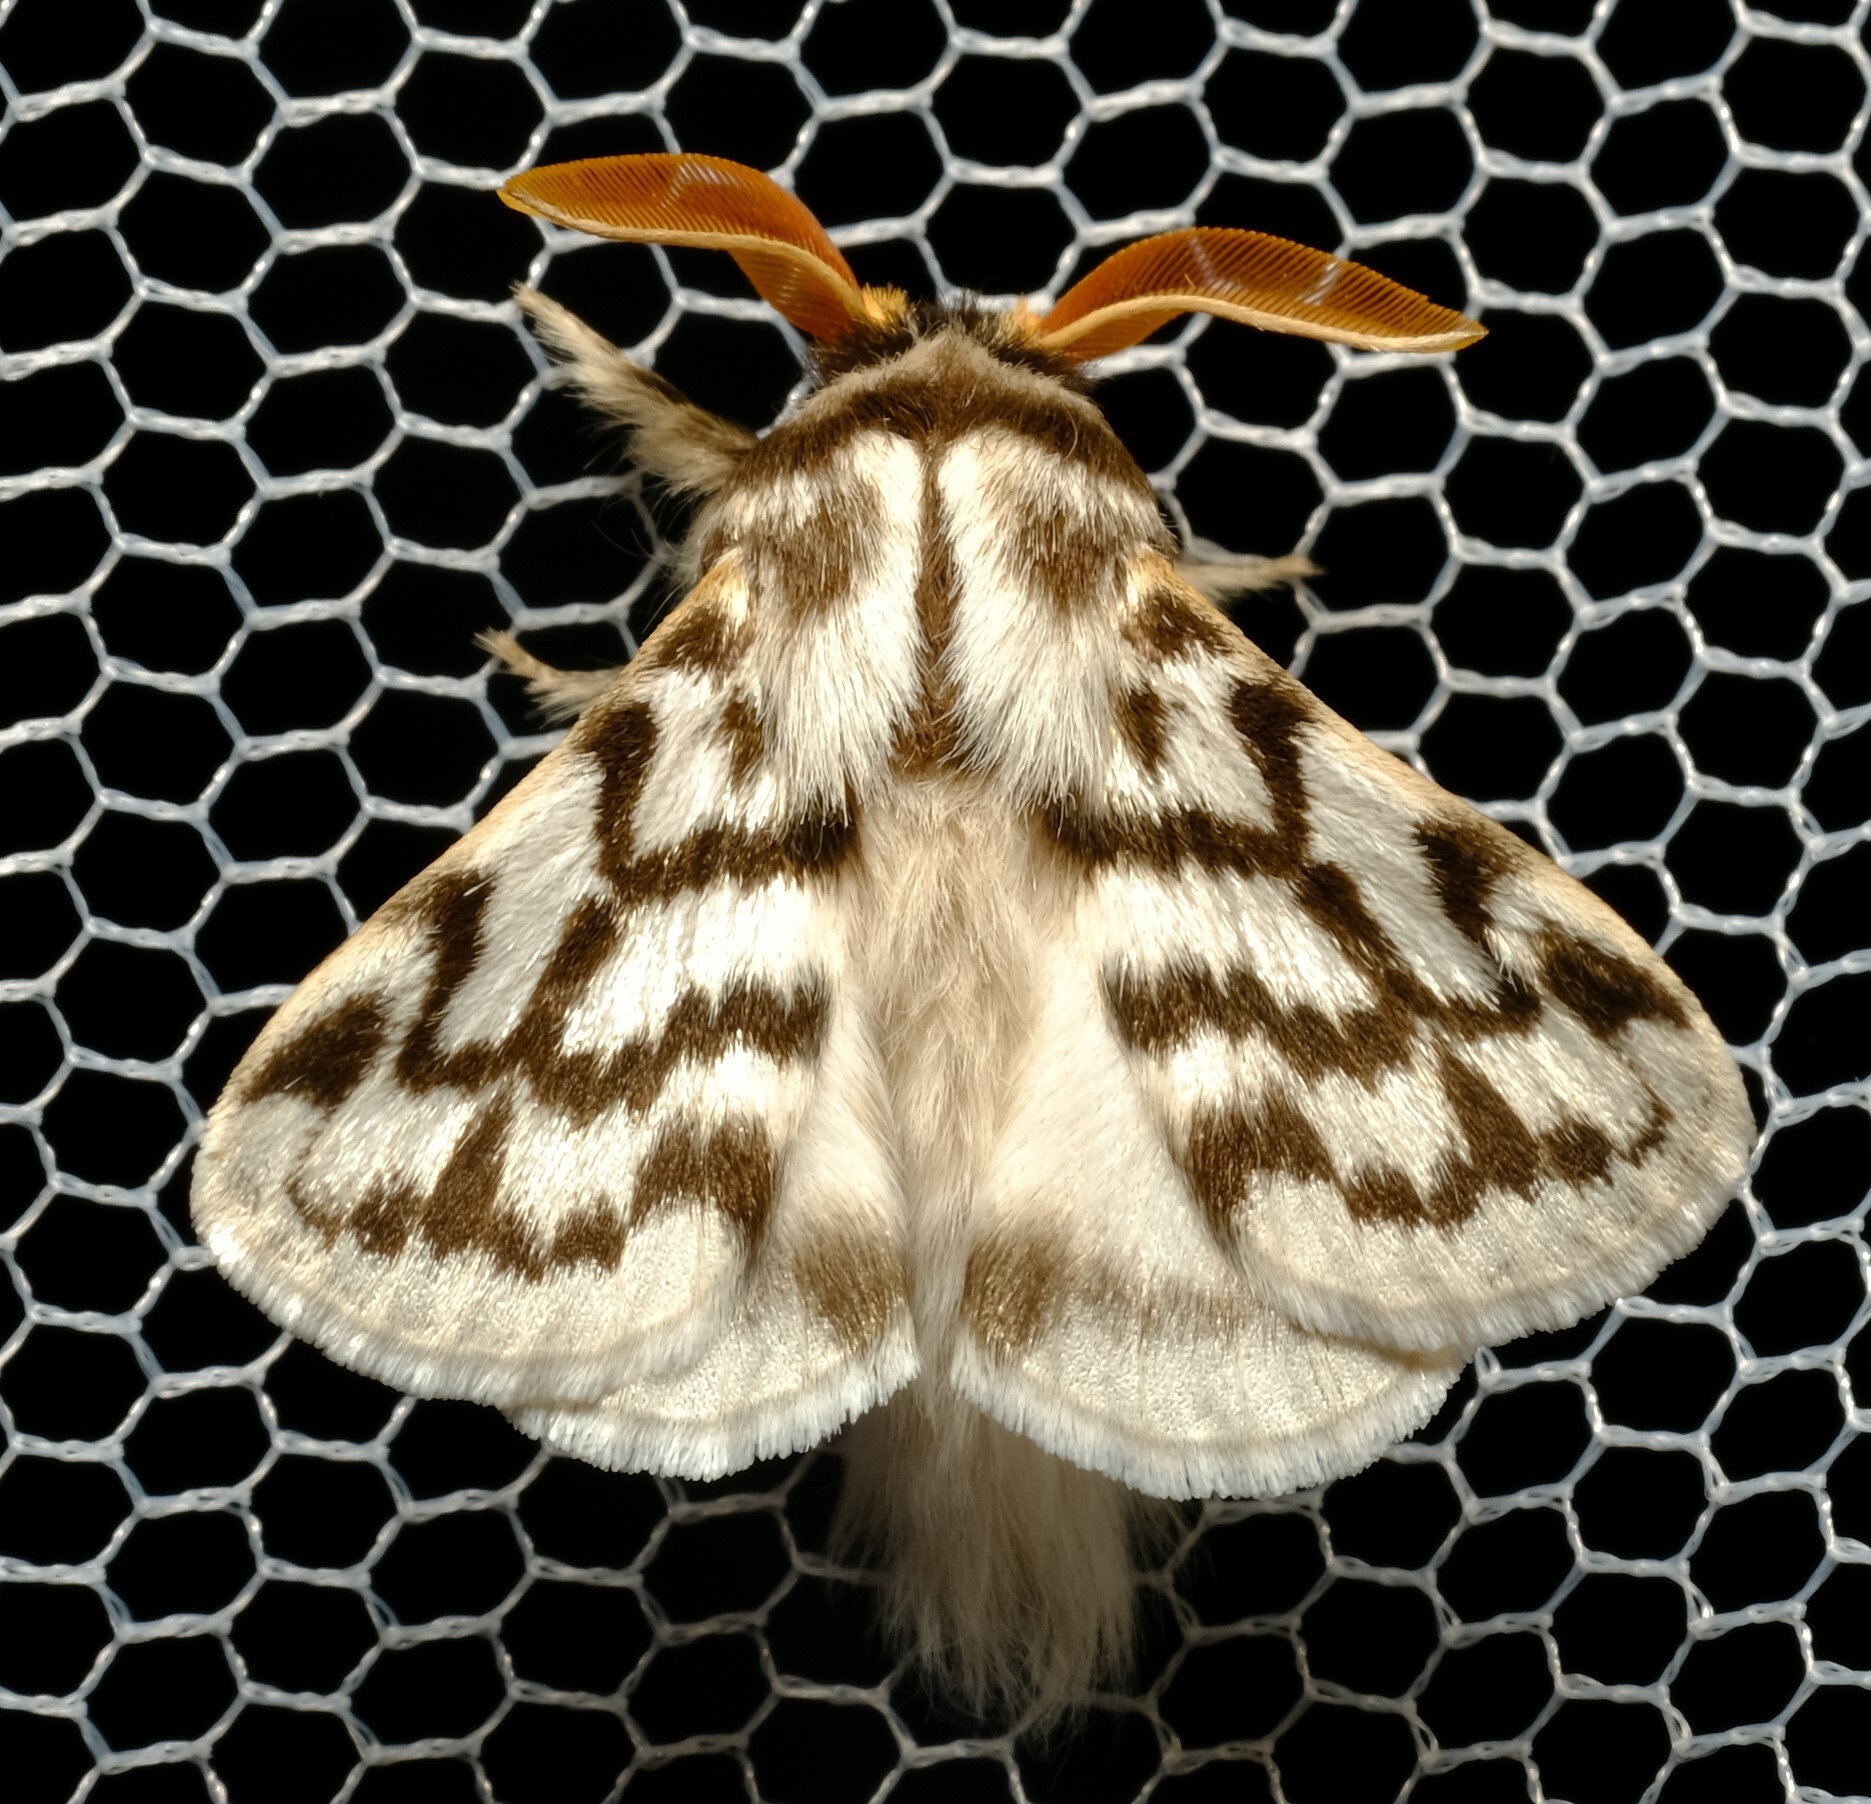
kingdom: Animalia
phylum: Arthropoda
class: Insecta
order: Lepidoptera
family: Lasiocampidae
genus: Pernattia
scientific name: Pernattia chlorophragma
